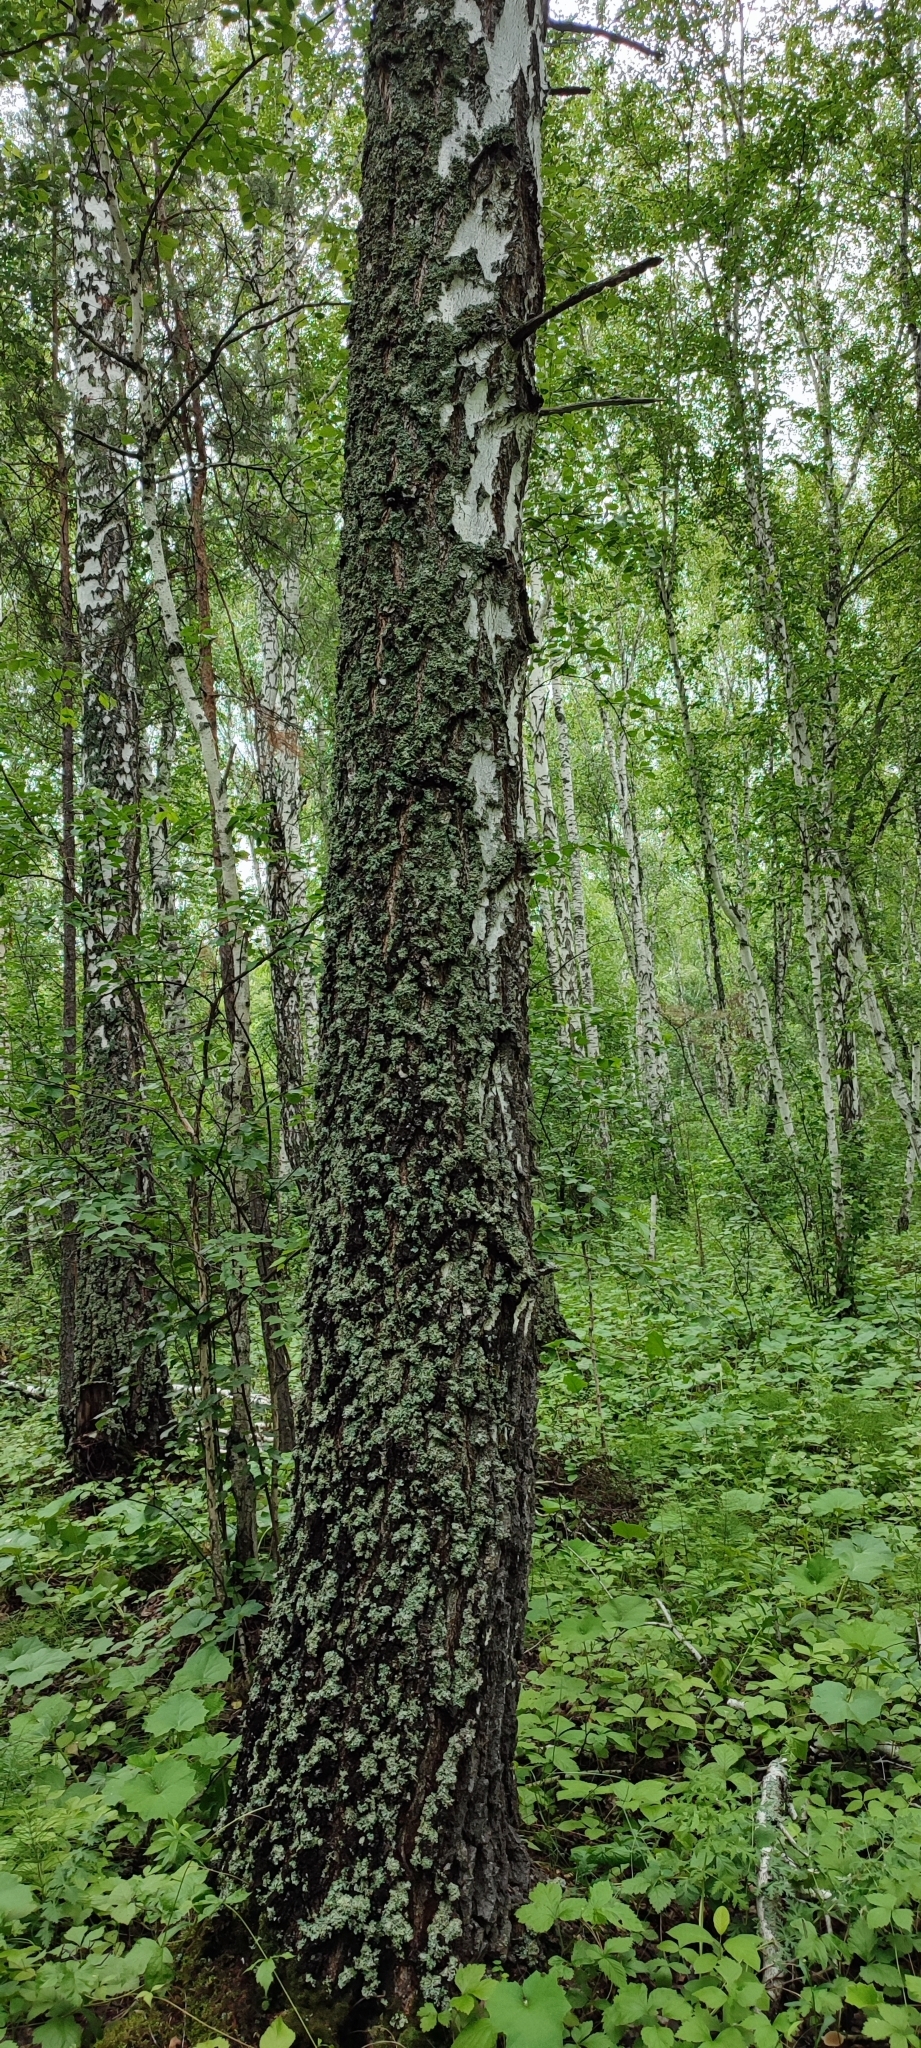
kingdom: Plantae
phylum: Tracheophyta
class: Magnoliopsida
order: Fagales
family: Betulaceae
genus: Betula
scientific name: Betula pendula
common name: Silver birch
